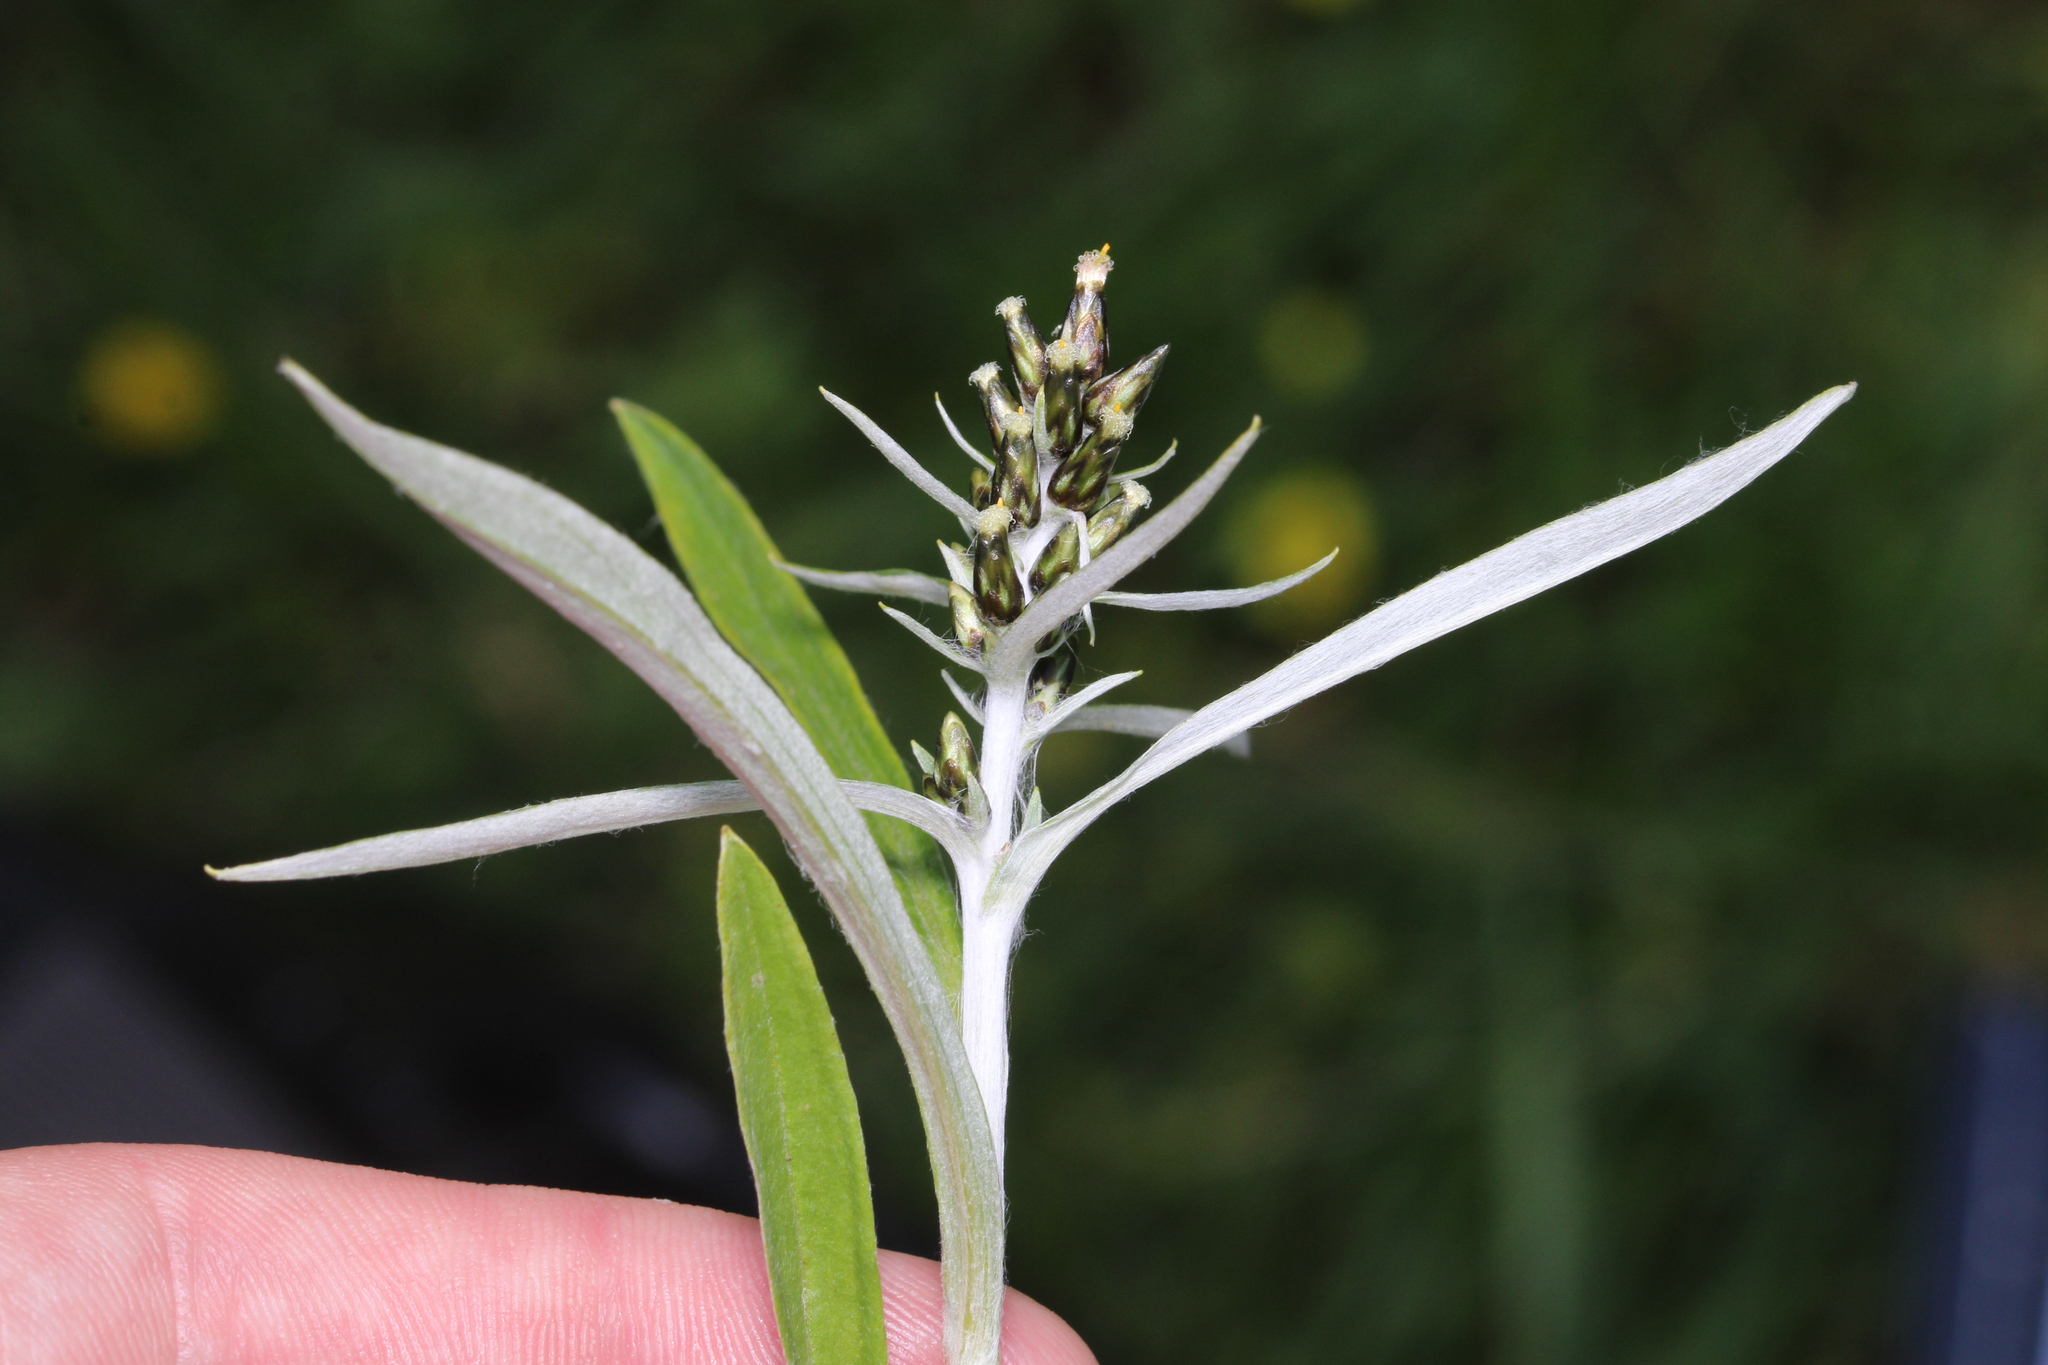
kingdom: Plantae
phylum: Tracheophyta
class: Magnoliopsida
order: Asterales
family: Asteraceae
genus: Omalotheca
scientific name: Omalotheca norvegica
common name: Norwegian arctic-cudweed
